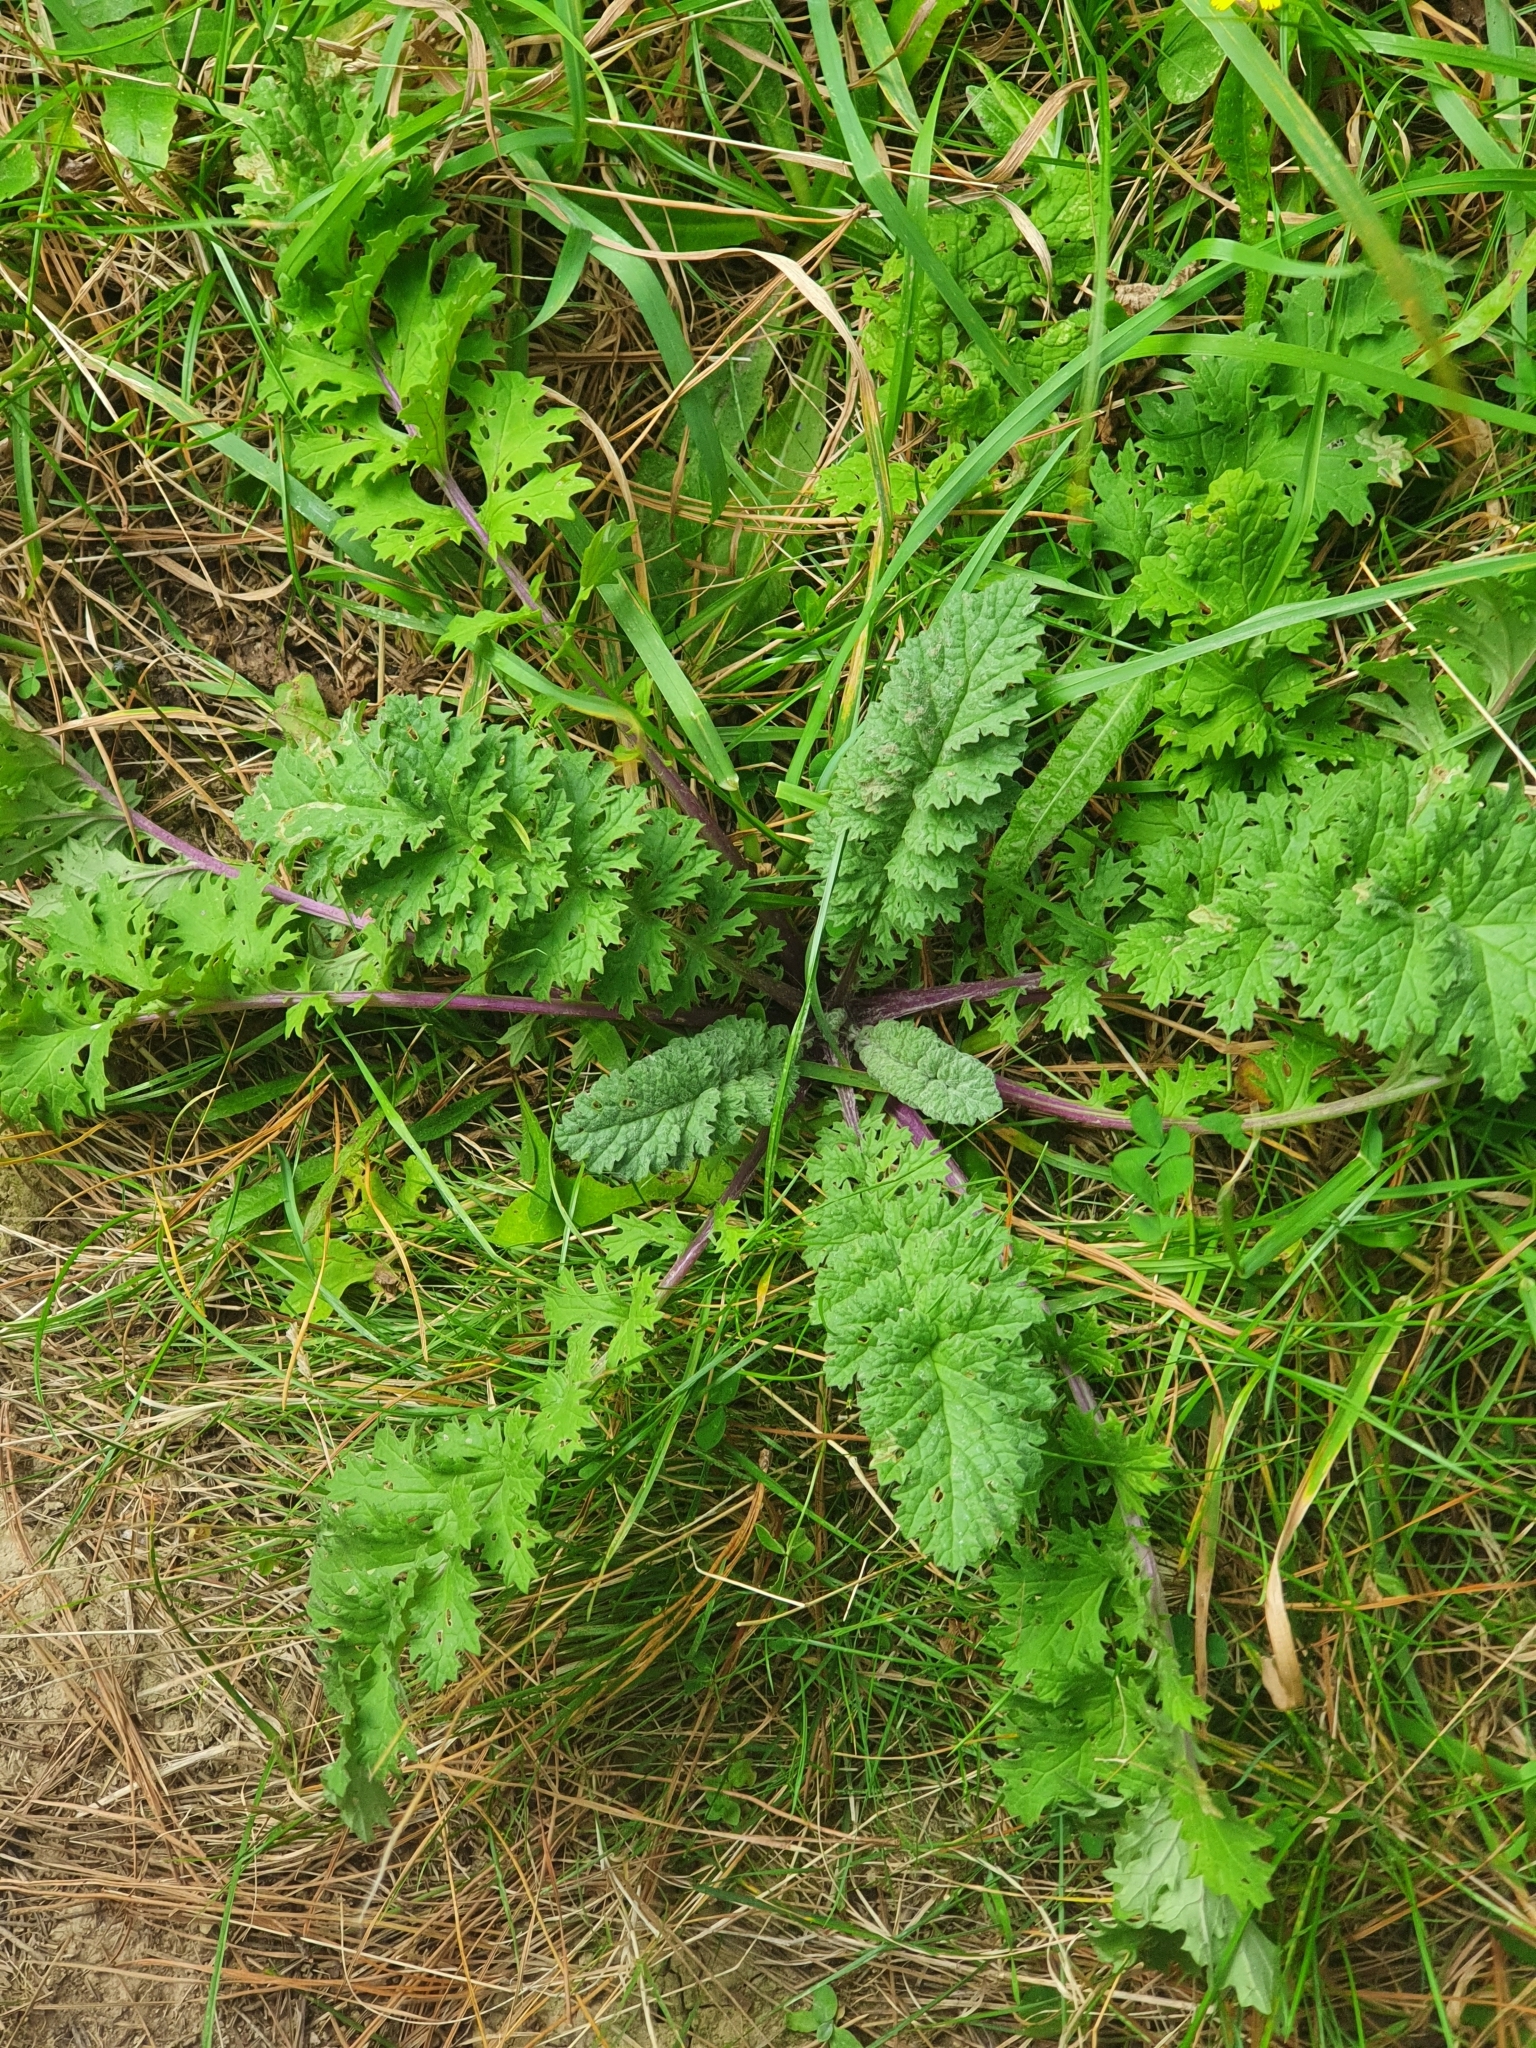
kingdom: Plantae
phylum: Tracheophyta
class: Magnoliopsida
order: Asterales
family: Asteraceae
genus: Jacobaea
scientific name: Jacobaea vulgaris
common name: Stinking willie
